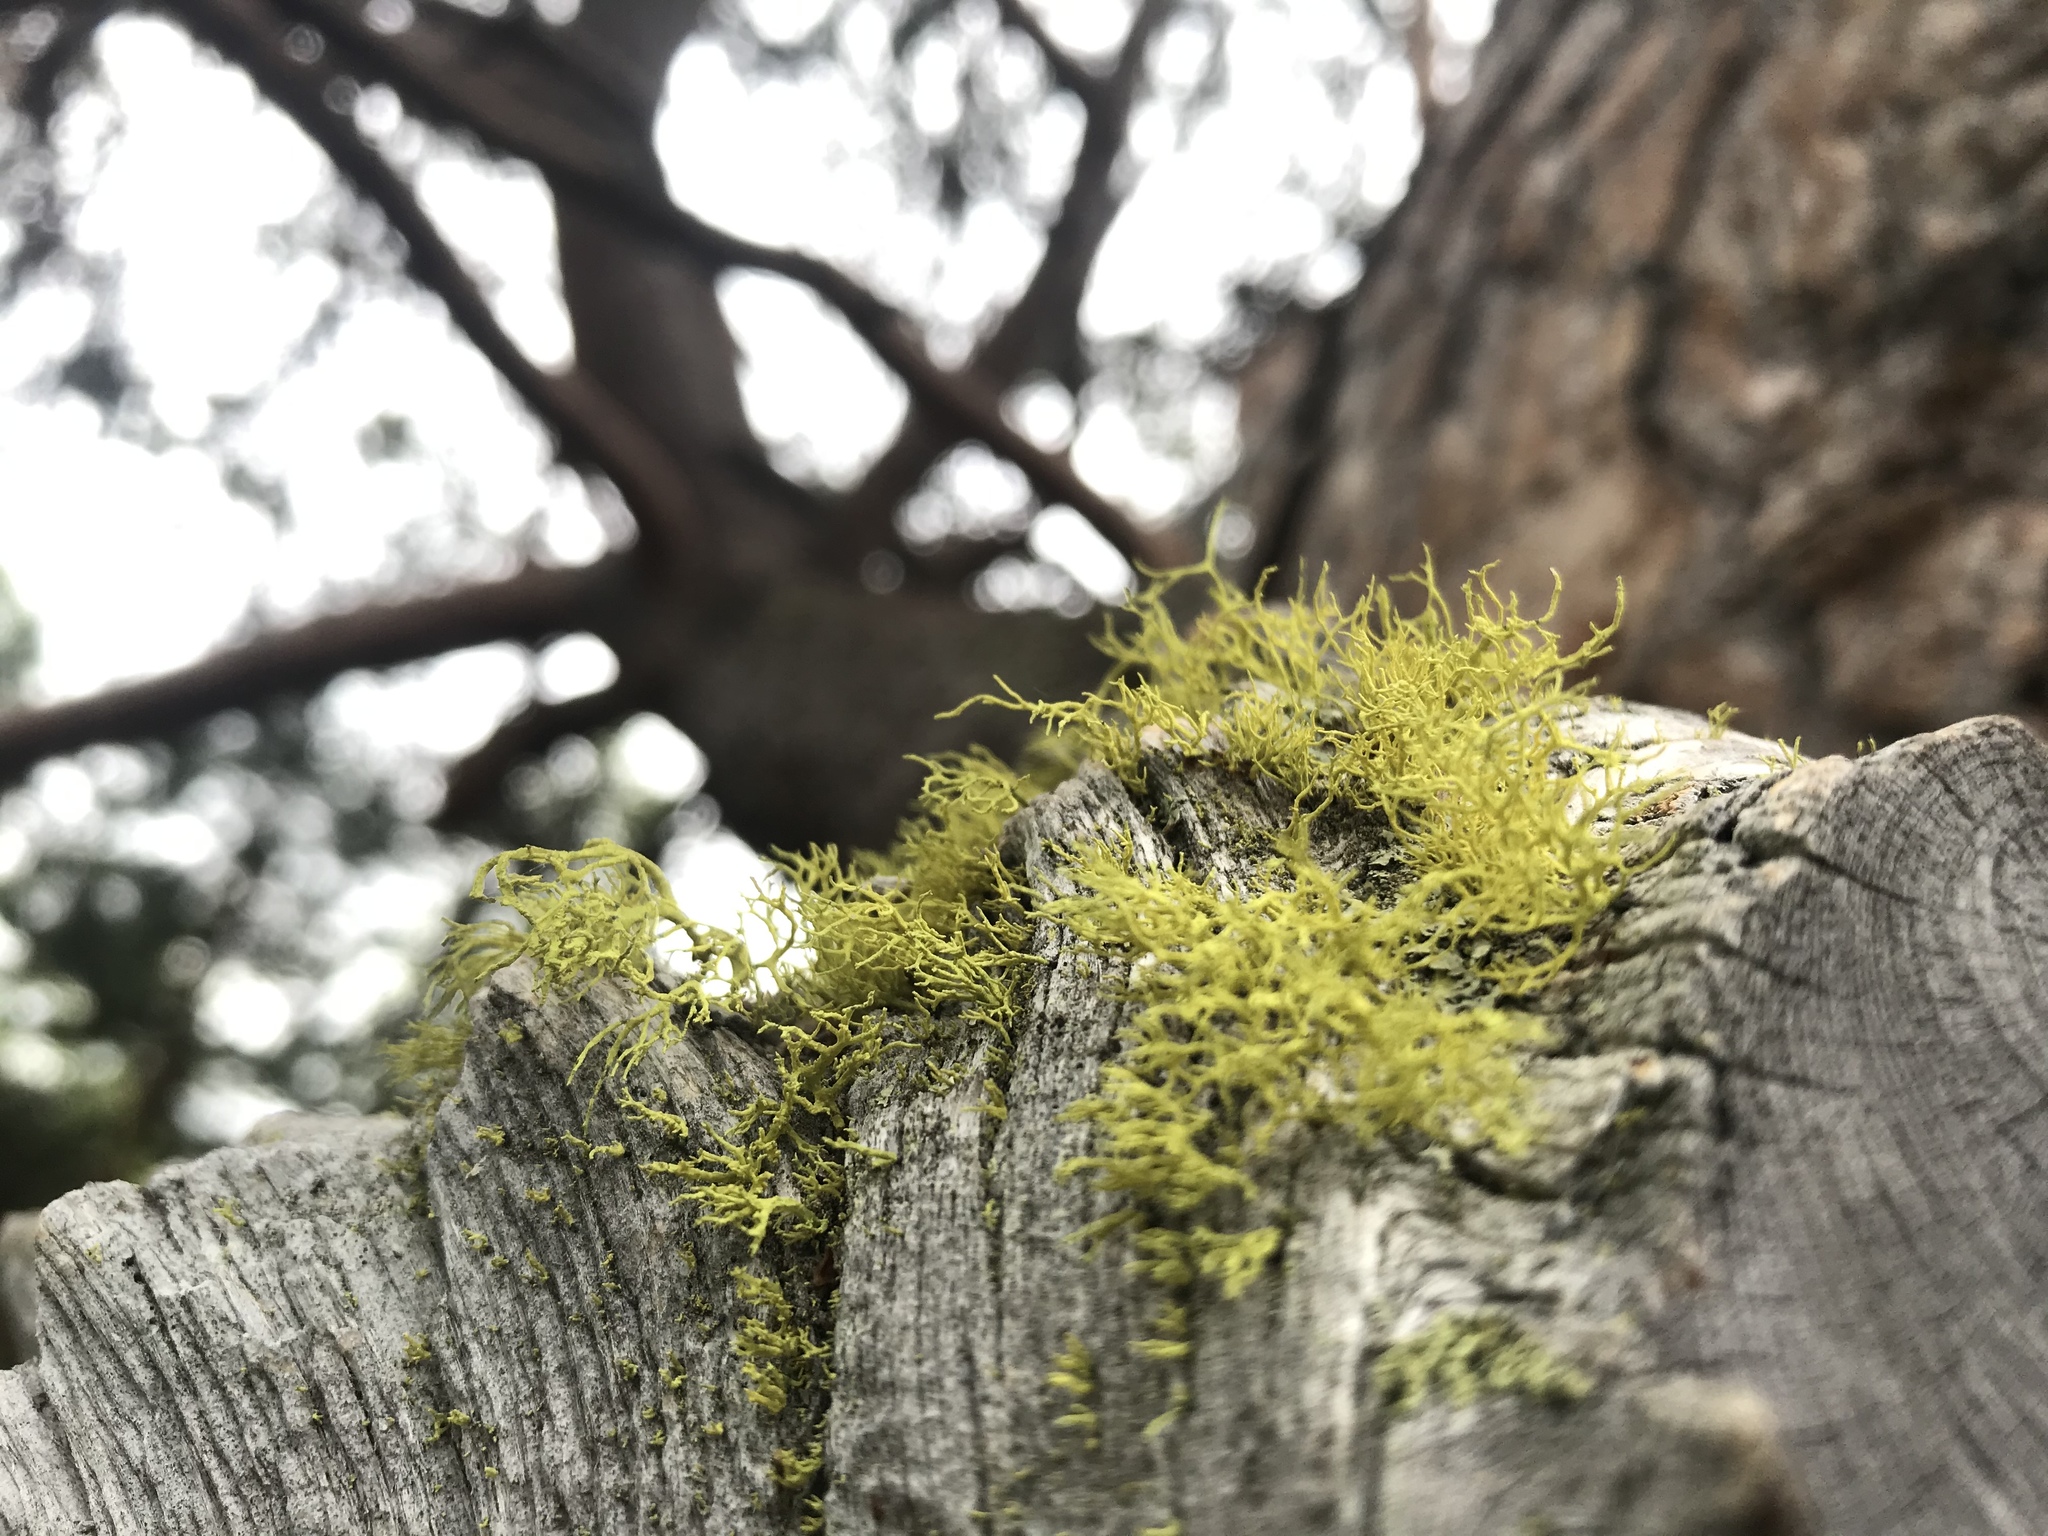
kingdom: Fungi
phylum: Ascomycota
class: Lecanoromycetes
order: Lecanorales
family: Parmeliaceae
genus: Letharia
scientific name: Letharia vulpina
